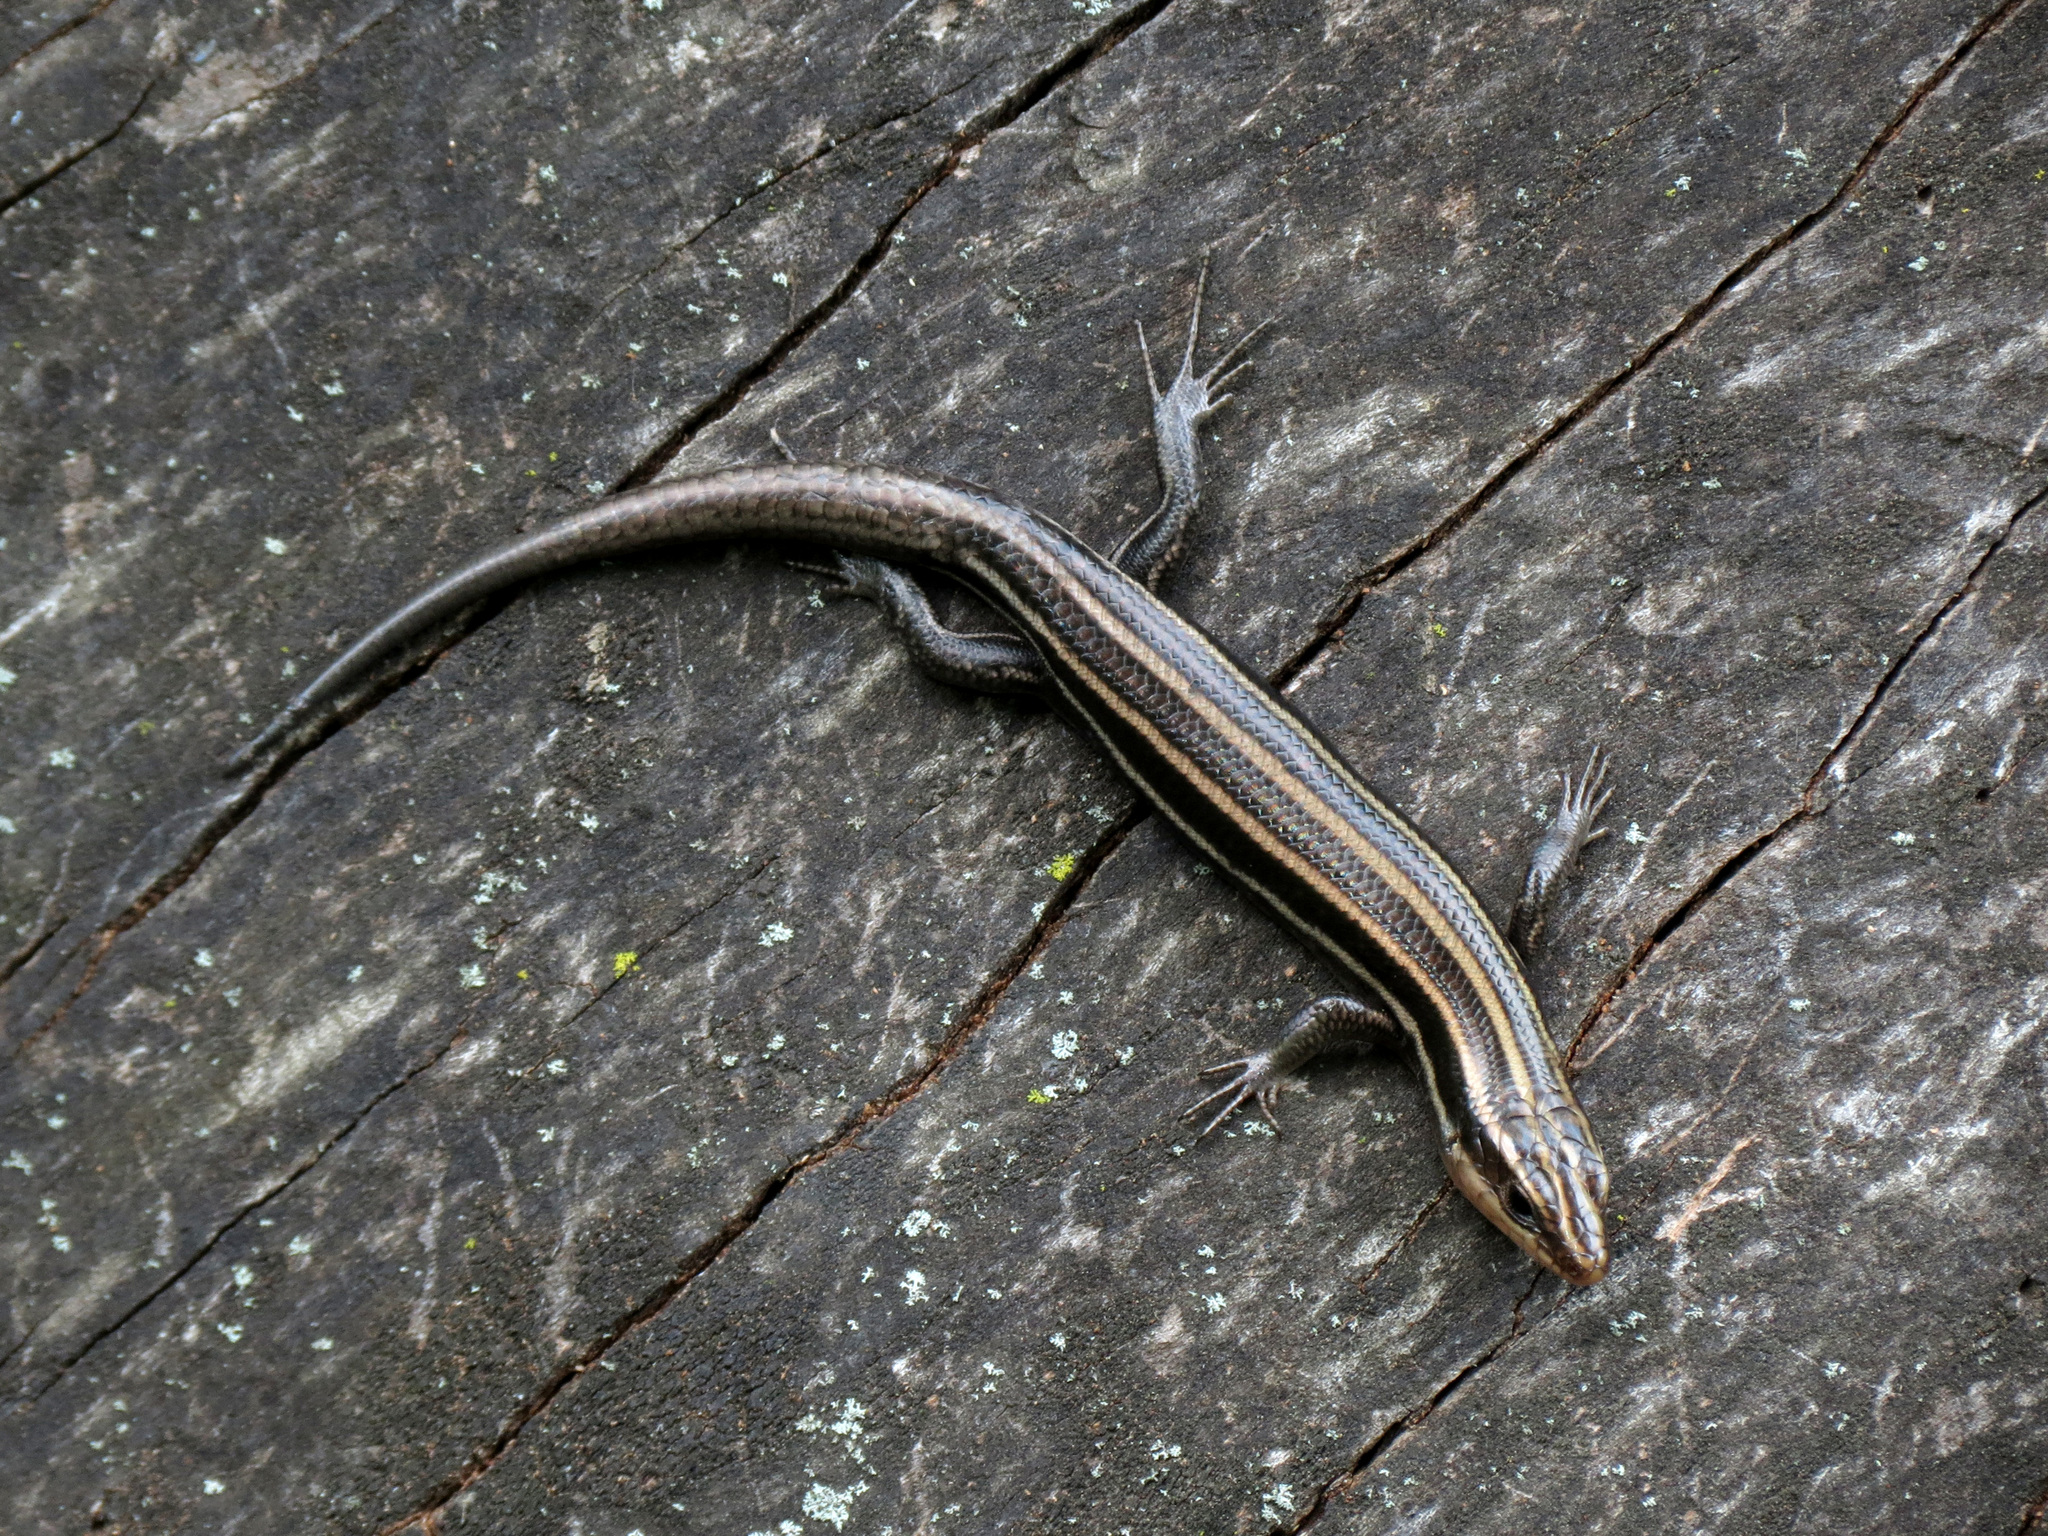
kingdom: Animalia
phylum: Chordata
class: Squamata
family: Scincidae
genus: Plestiodon
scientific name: Plestiodon fasciatus
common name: Five-lined skink
